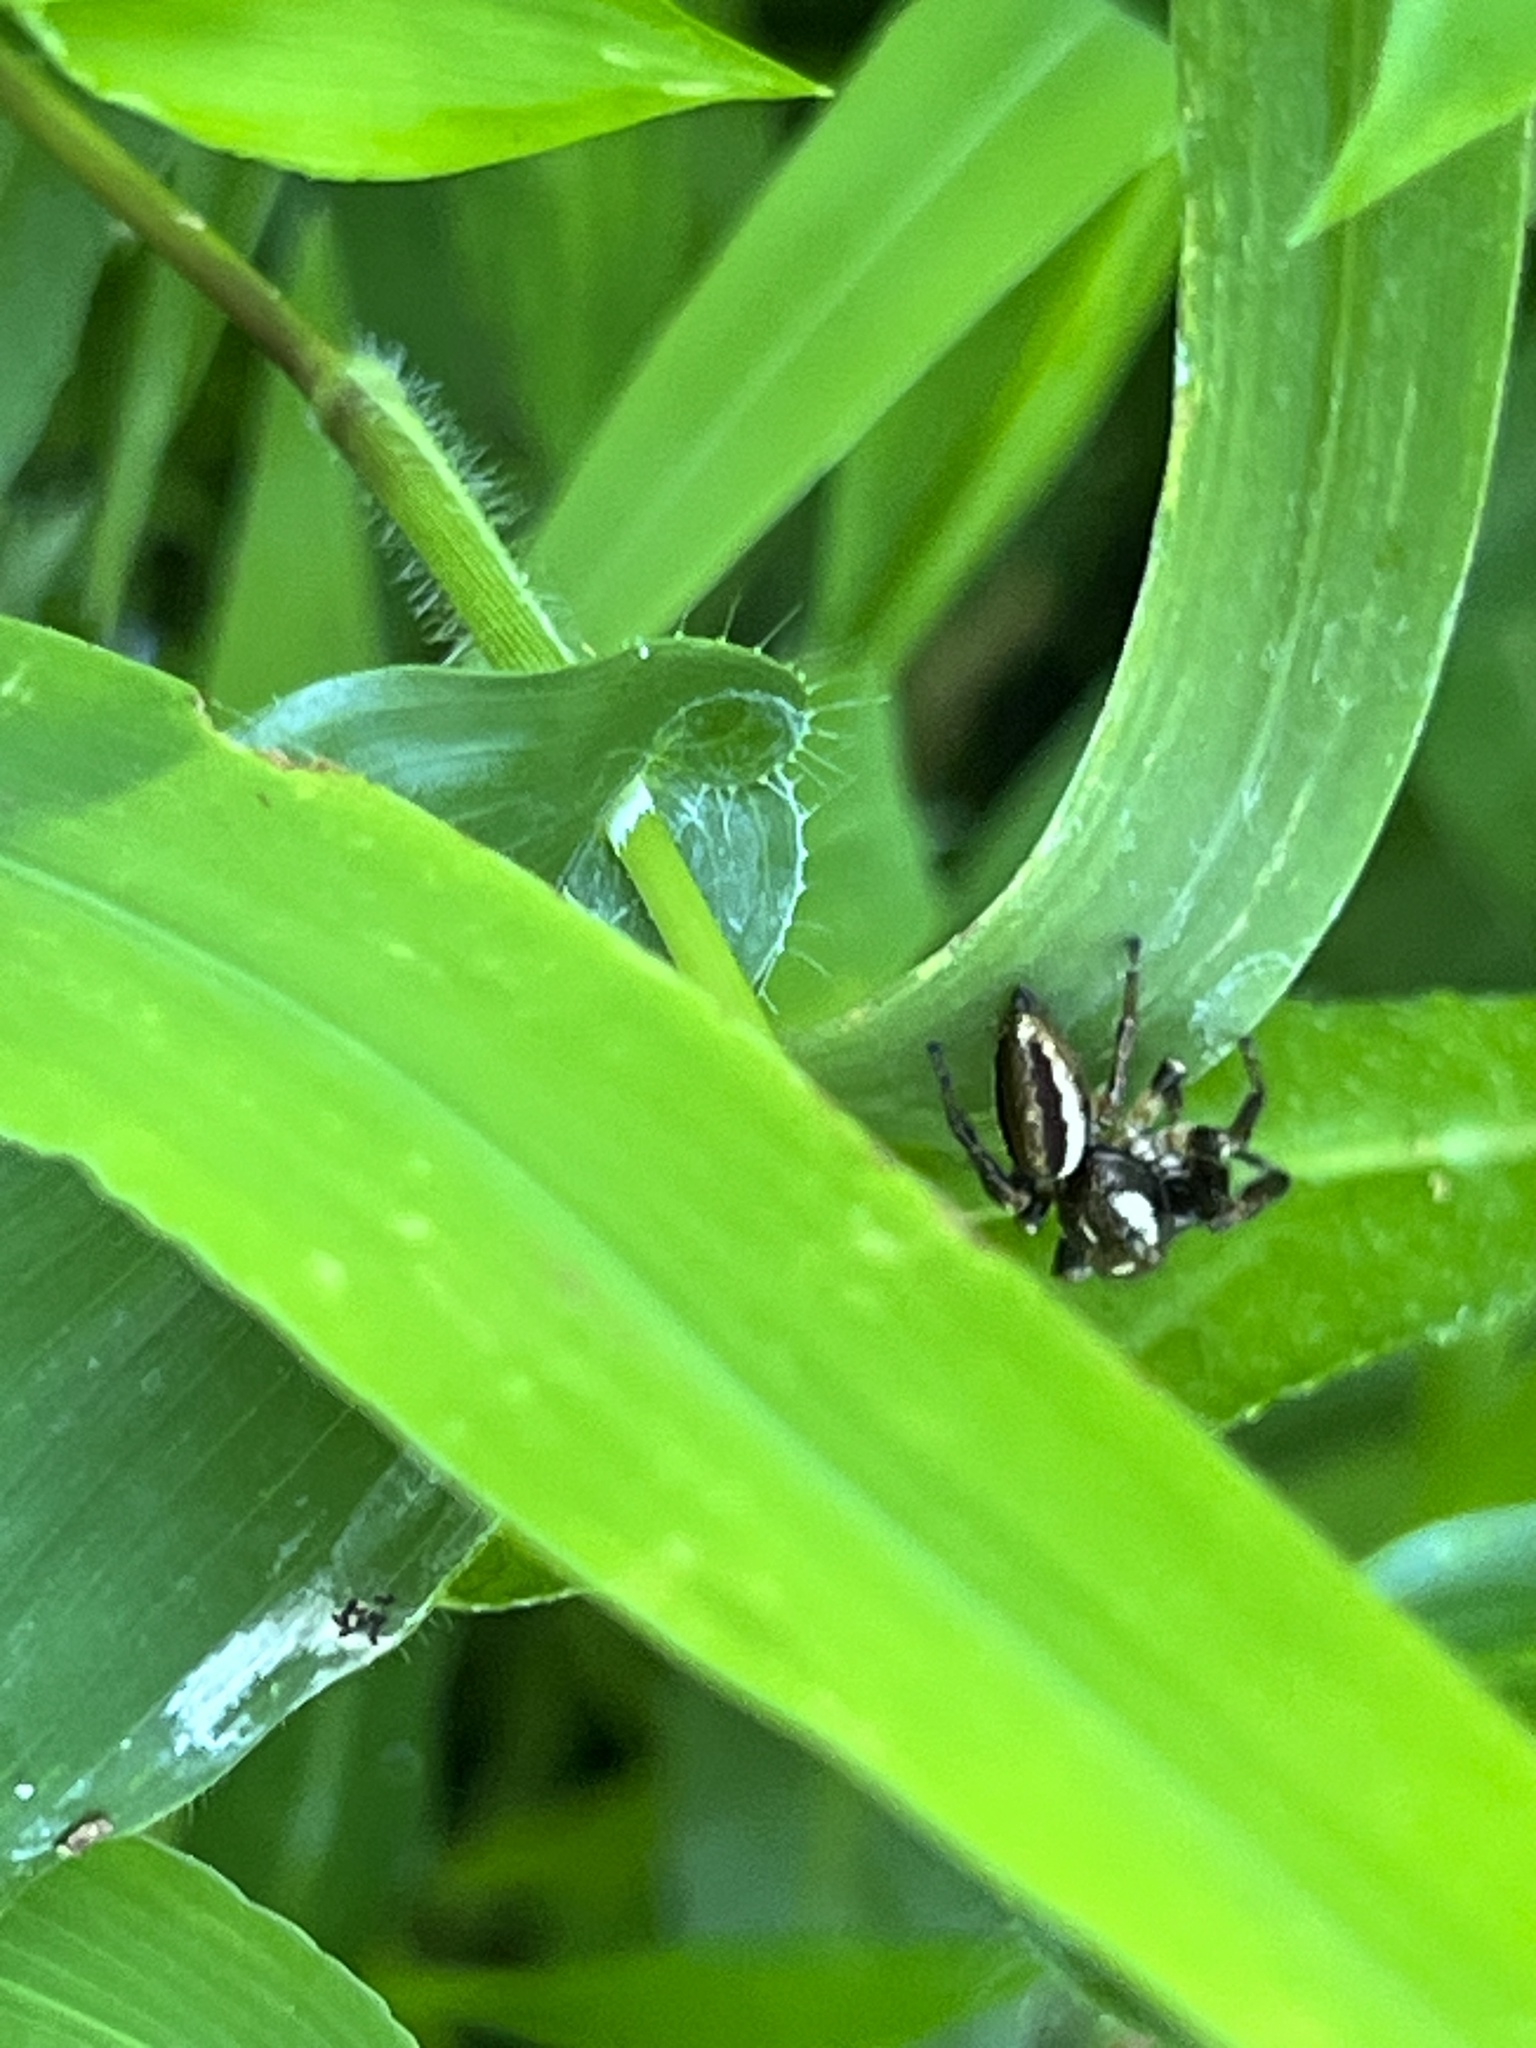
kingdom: Animalia
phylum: Arthropoda
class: Arachnida
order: Araneae
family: Salticidae
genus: Eris
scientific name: Eris militaris
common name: Bronze jumper
